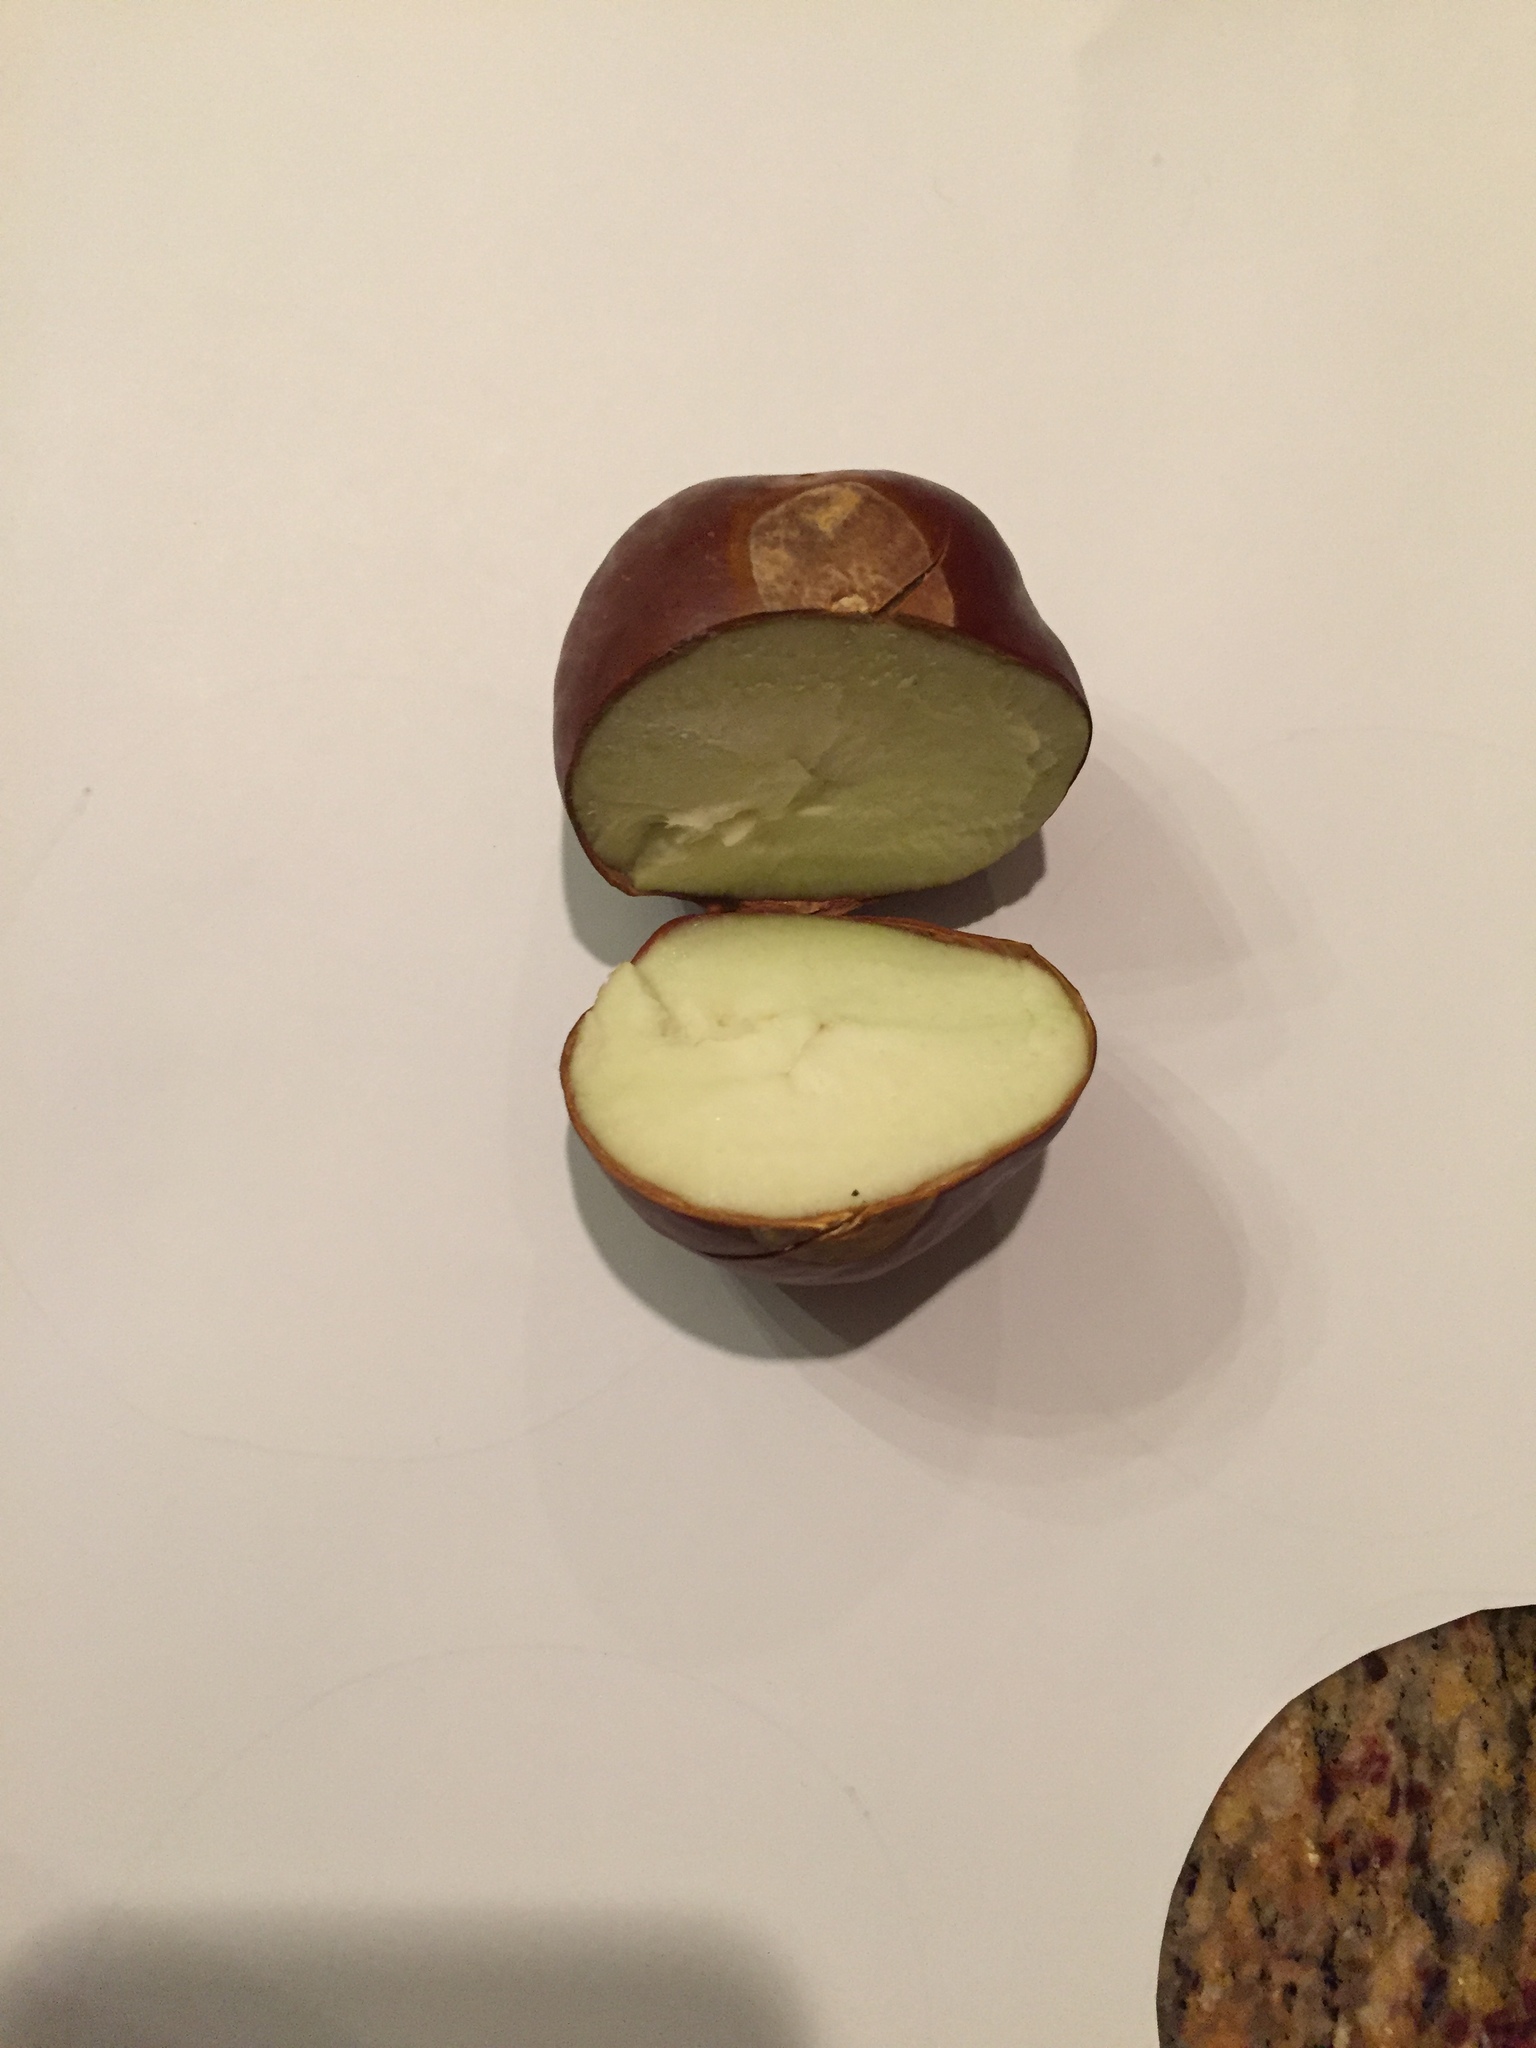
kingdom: Plantae
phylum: Tracheophyta
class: Magnoliopsida
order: Sapindales
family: Sapindaceae
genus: Aesculus
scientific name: Aesculus californica
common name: California buckeye
